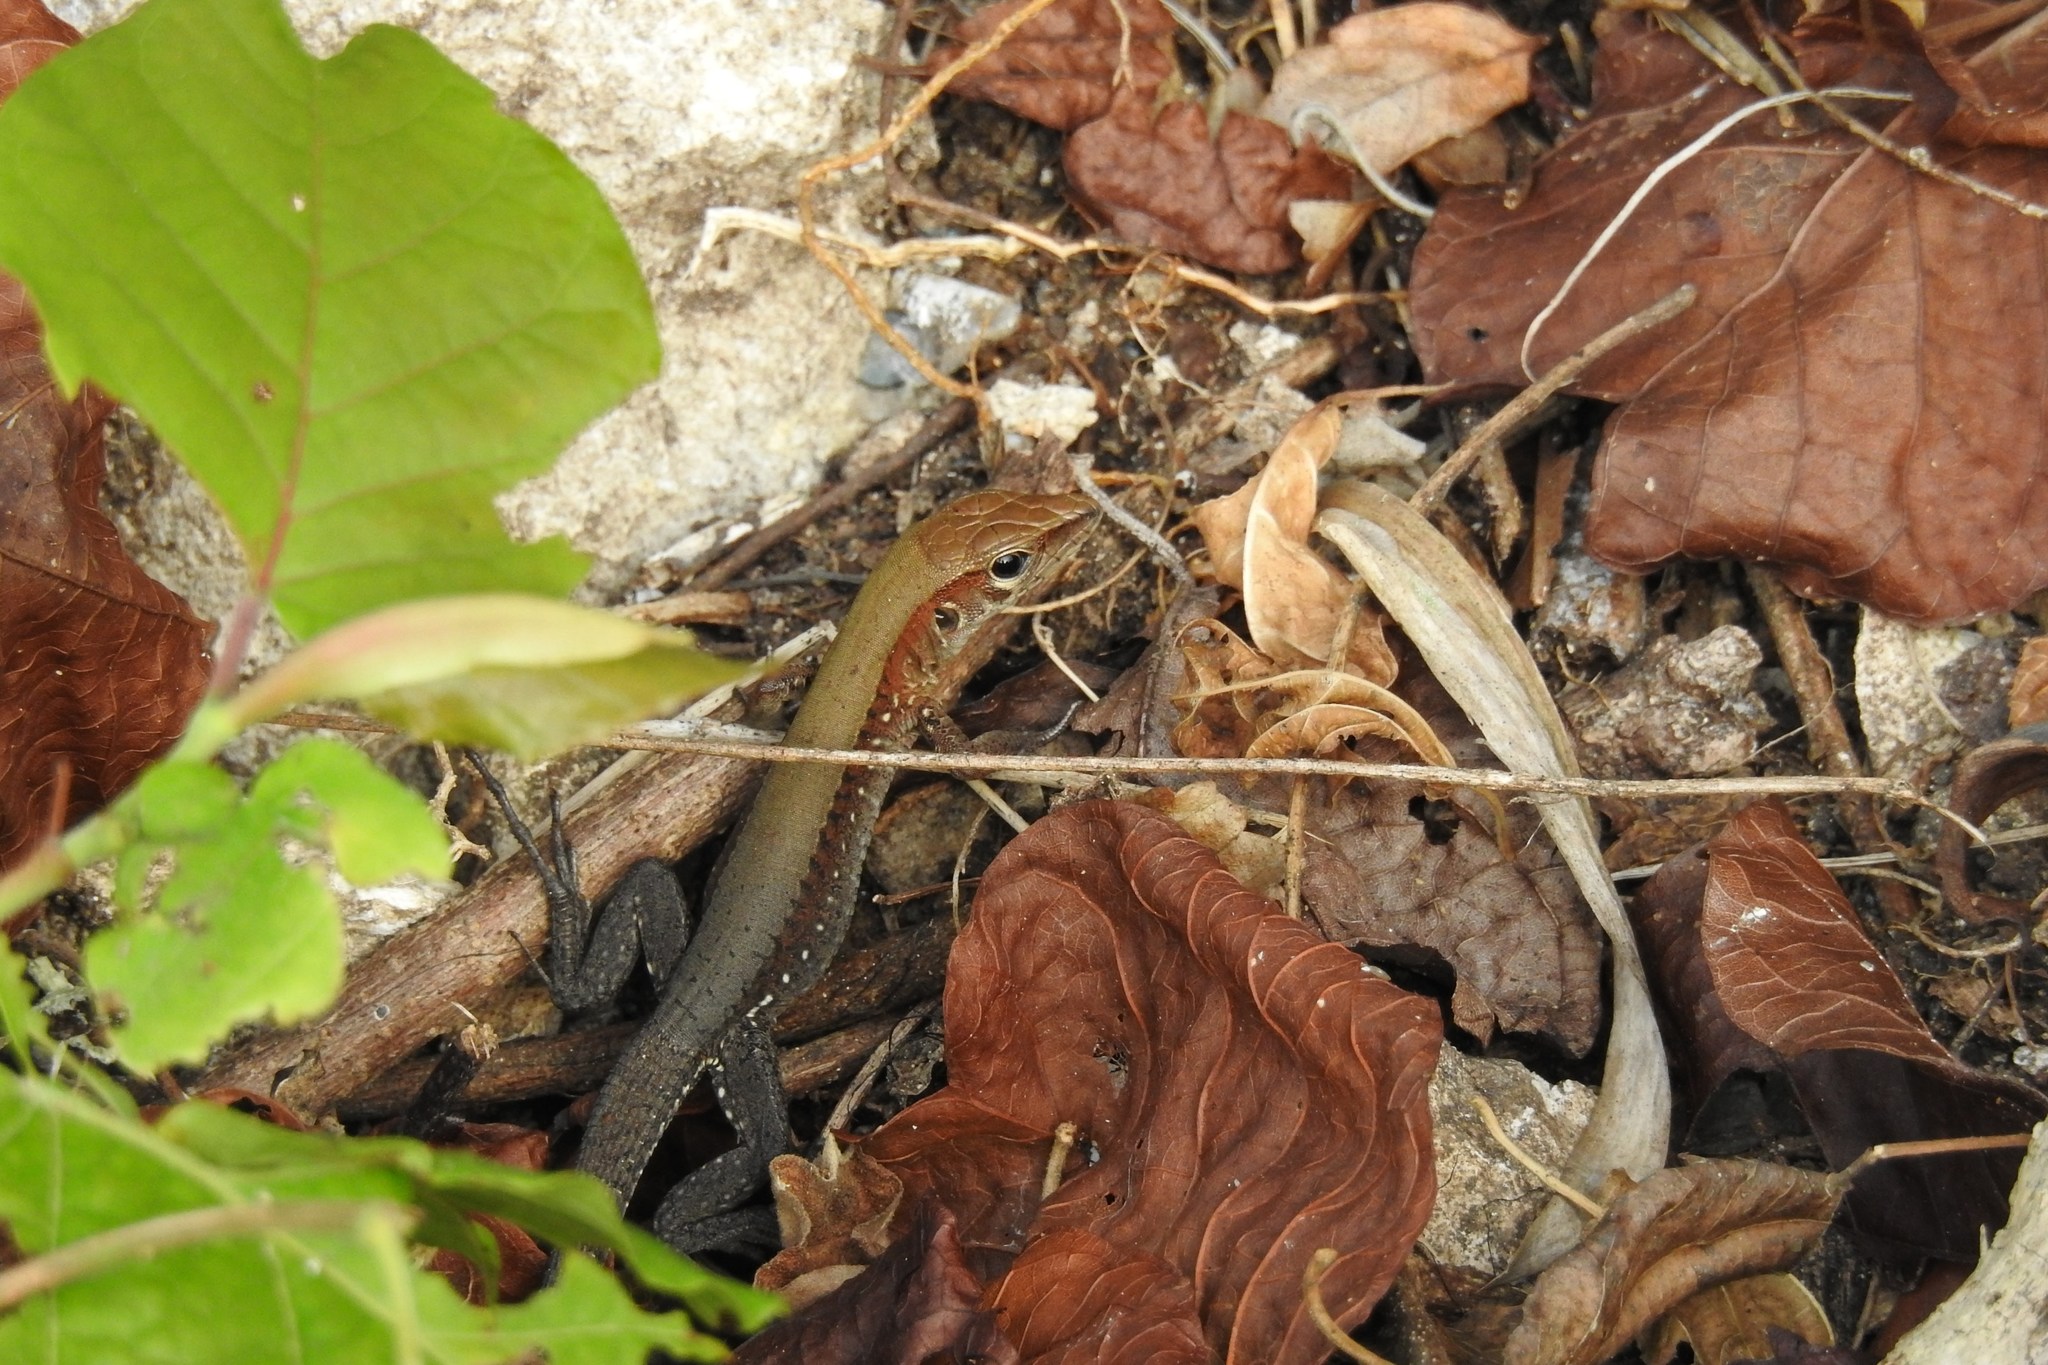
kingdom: Animalia
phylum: Chordata
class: Squamata
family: Teiidae
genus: Holcosus
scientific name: Holcosus undulatus
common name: Rainbow ameiva
